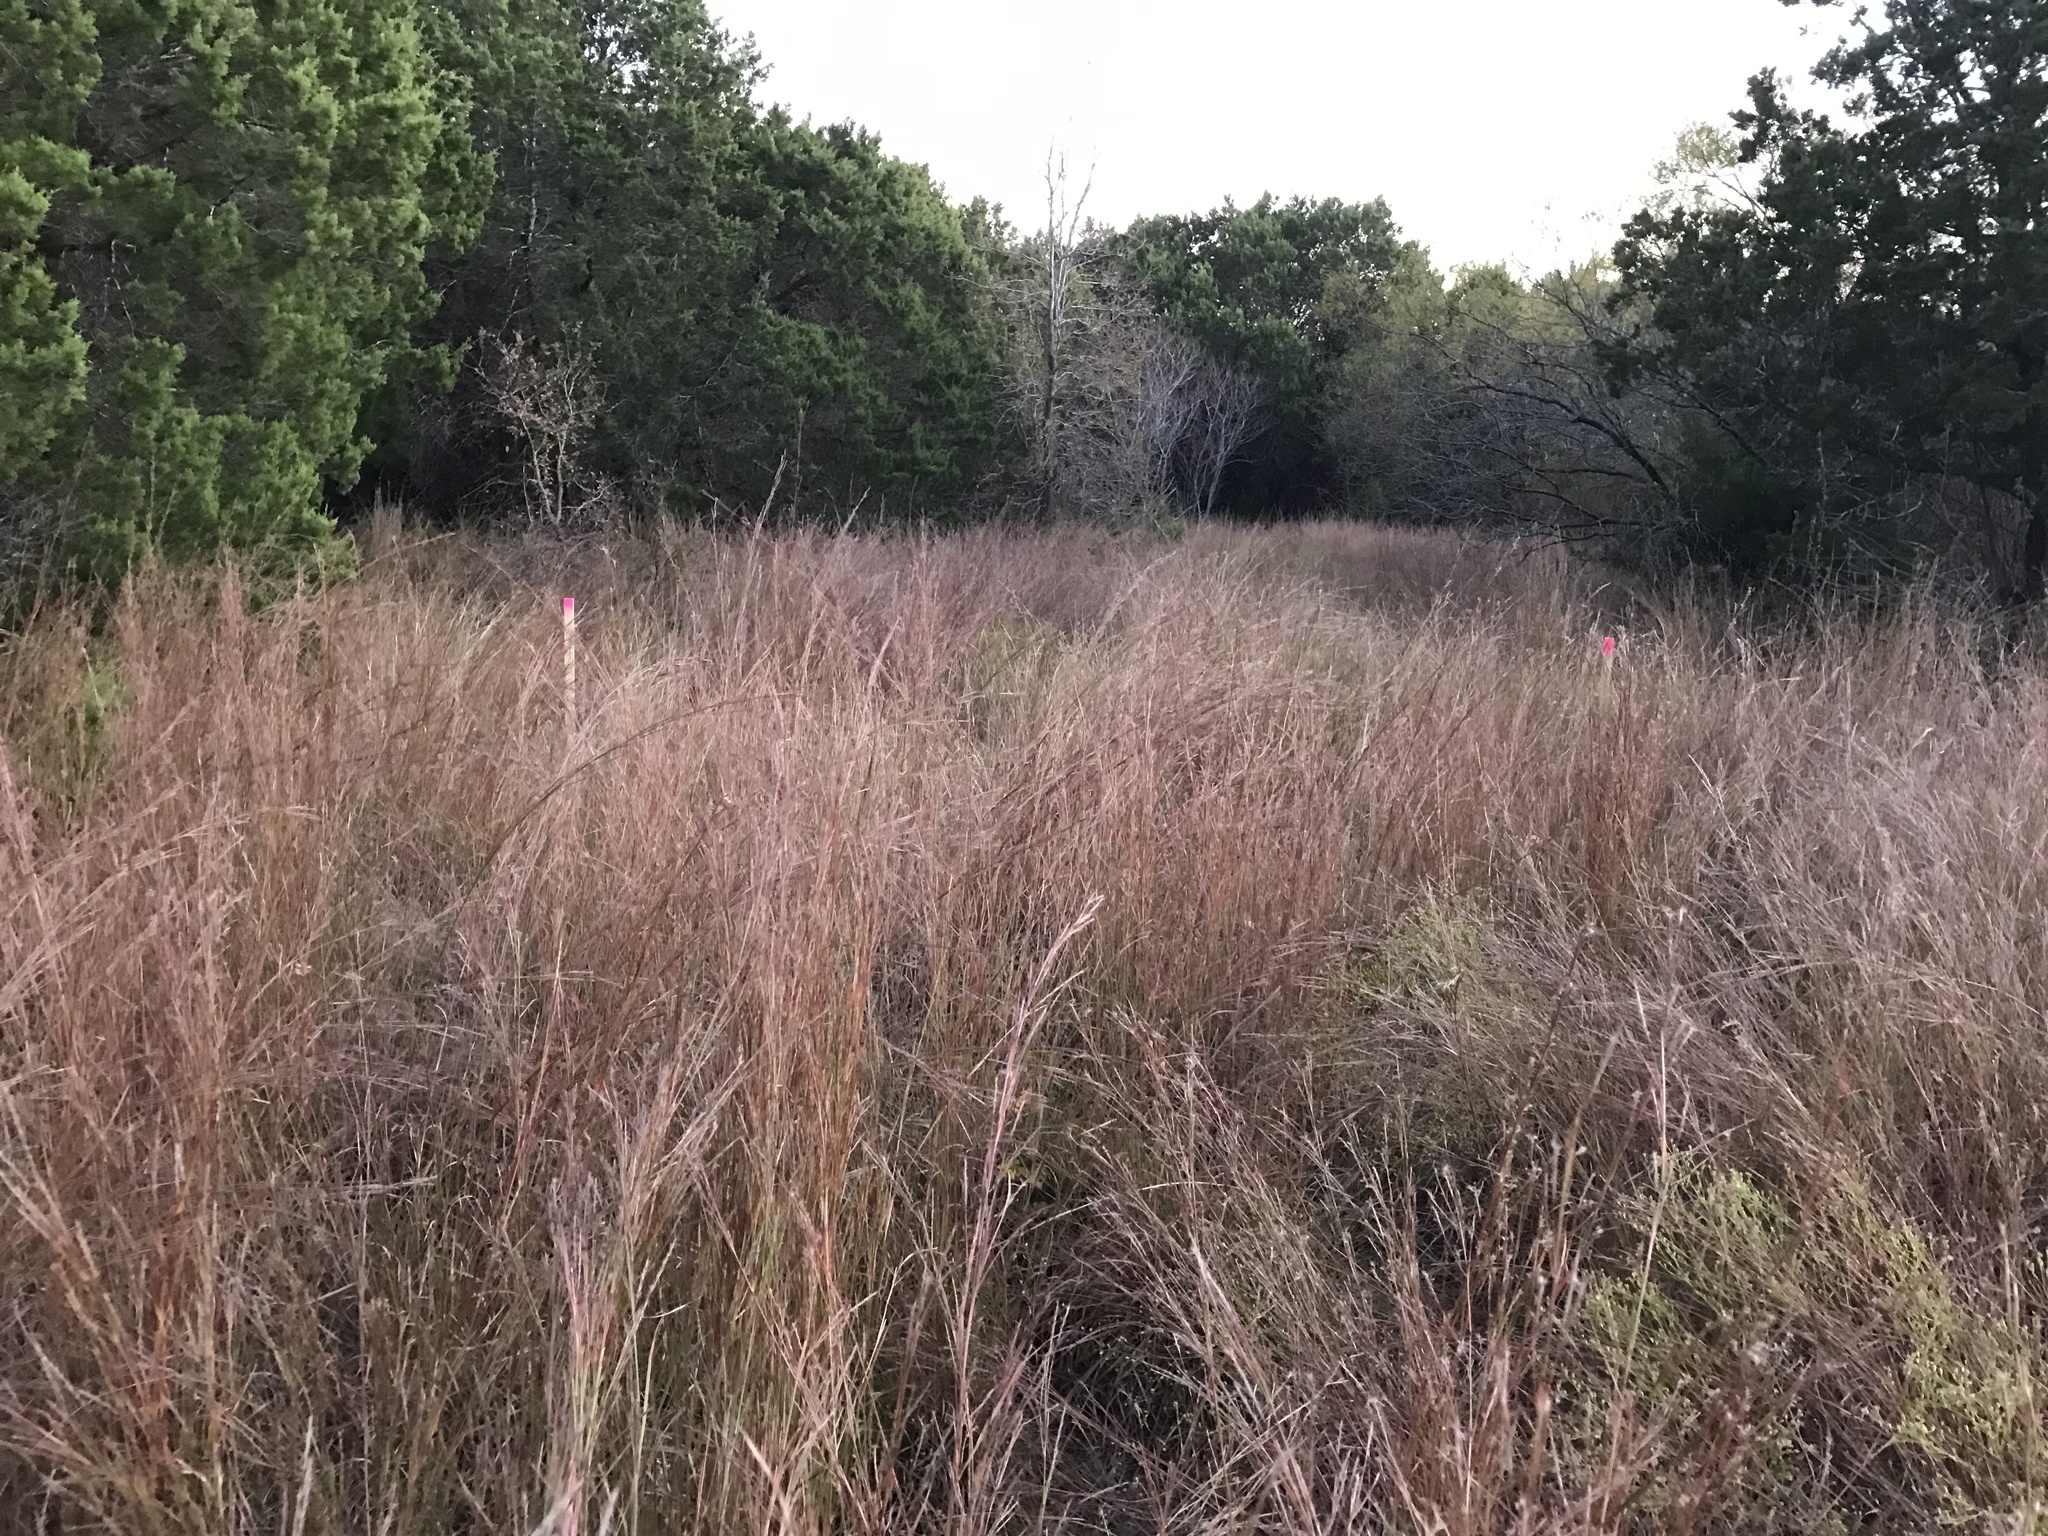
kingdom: Plantae
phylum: Tracheophyta
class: Liliopsida
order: Poales
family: Poaceae
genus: Schizachyrium
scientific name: Schizachyrium scoparium
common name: Little bluestem
